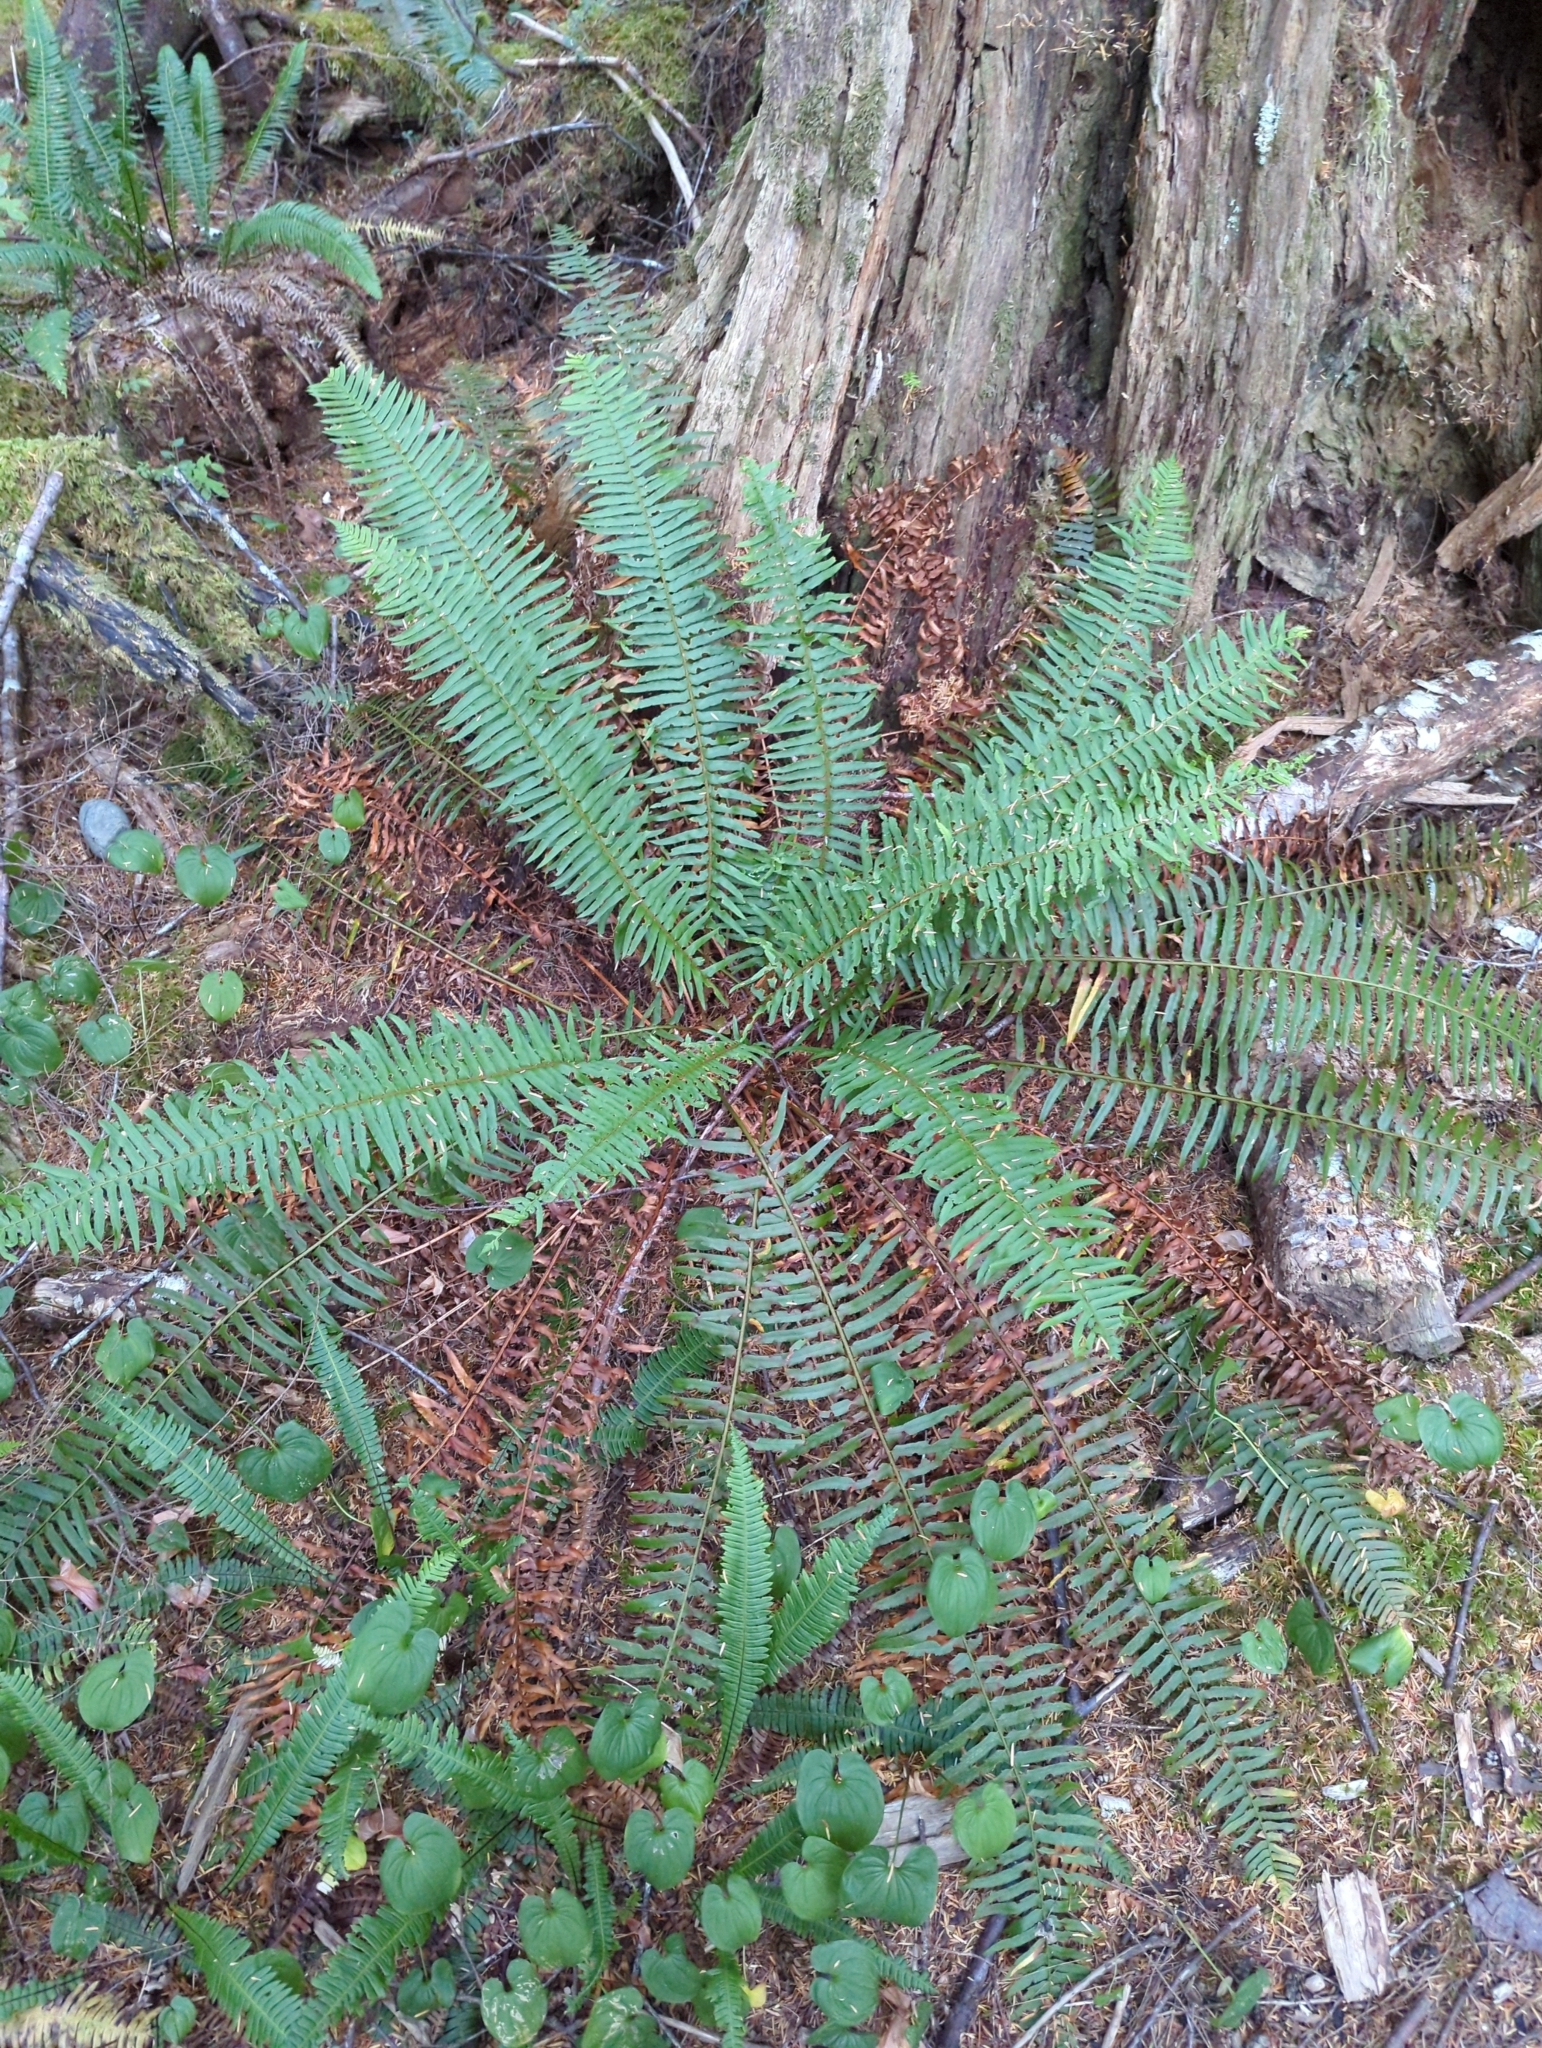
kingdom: Plantae
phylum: Tracheophyta
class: Polypodiopsida
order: Polypodiales
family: Dryopteridaceae
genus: Polystichum
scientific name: Polystichum munitum
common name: Western sword-fern
